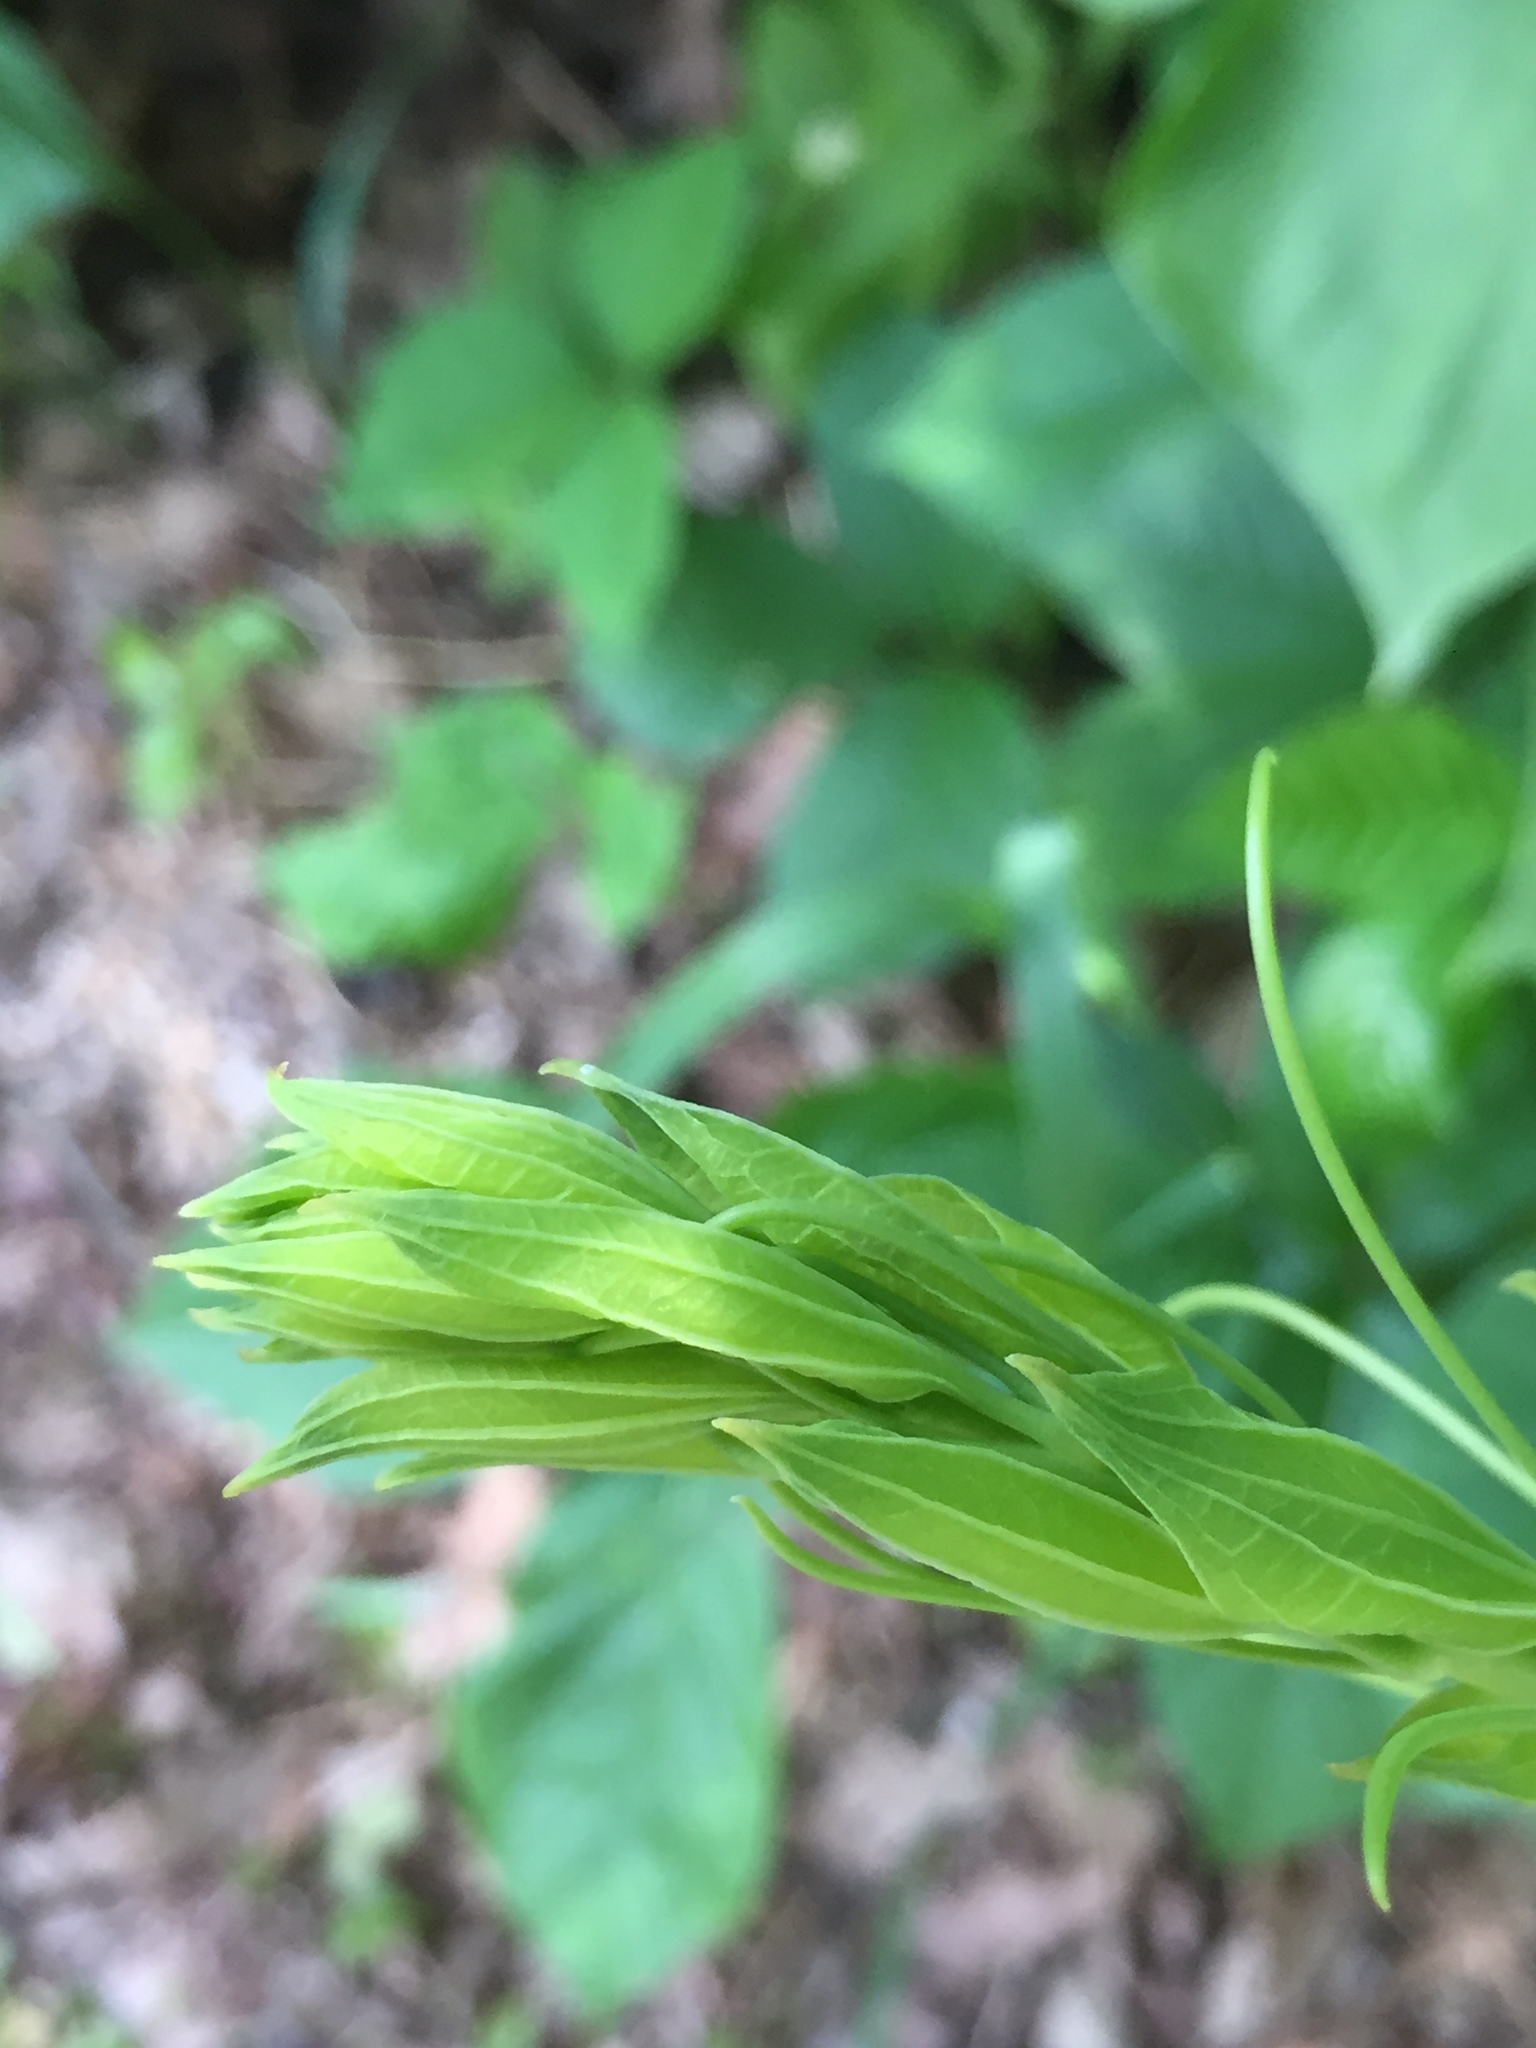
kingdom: Plantae
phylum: Tracheophyta
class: Liliopsida
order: Liliales
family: Smilacaceae
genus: Smilax
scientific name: Smilax lasioneura
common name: Blue ridge carrionflower
